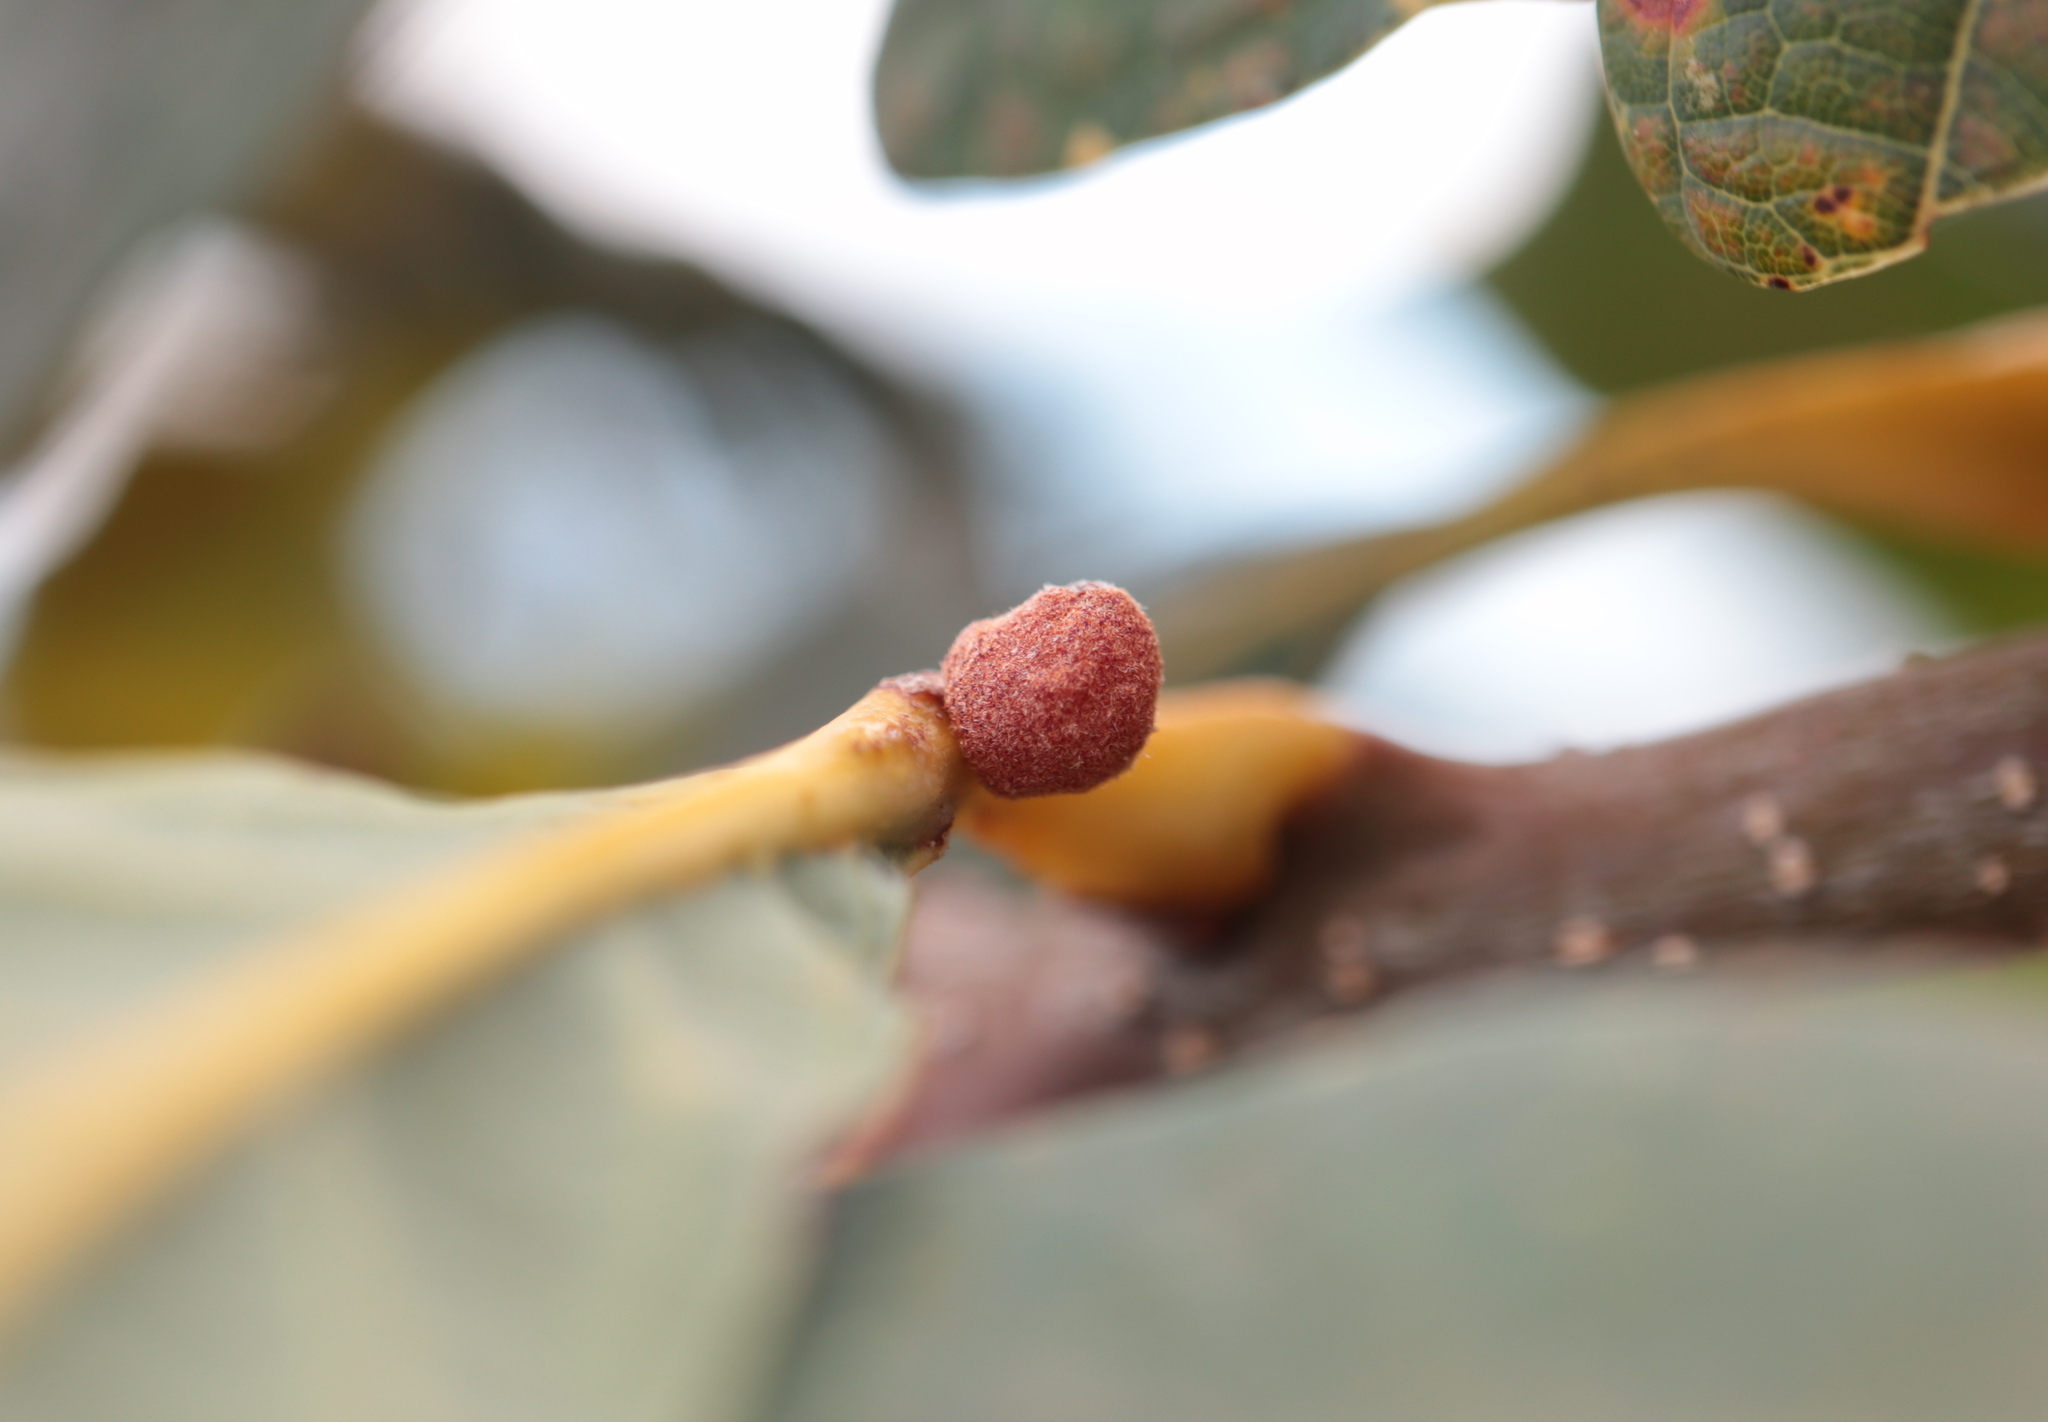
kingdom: Animalia
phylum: Arthropoda
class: Insecta
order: Hymenoptera
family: Cynipidae
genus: Andricus
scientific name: Andricus
